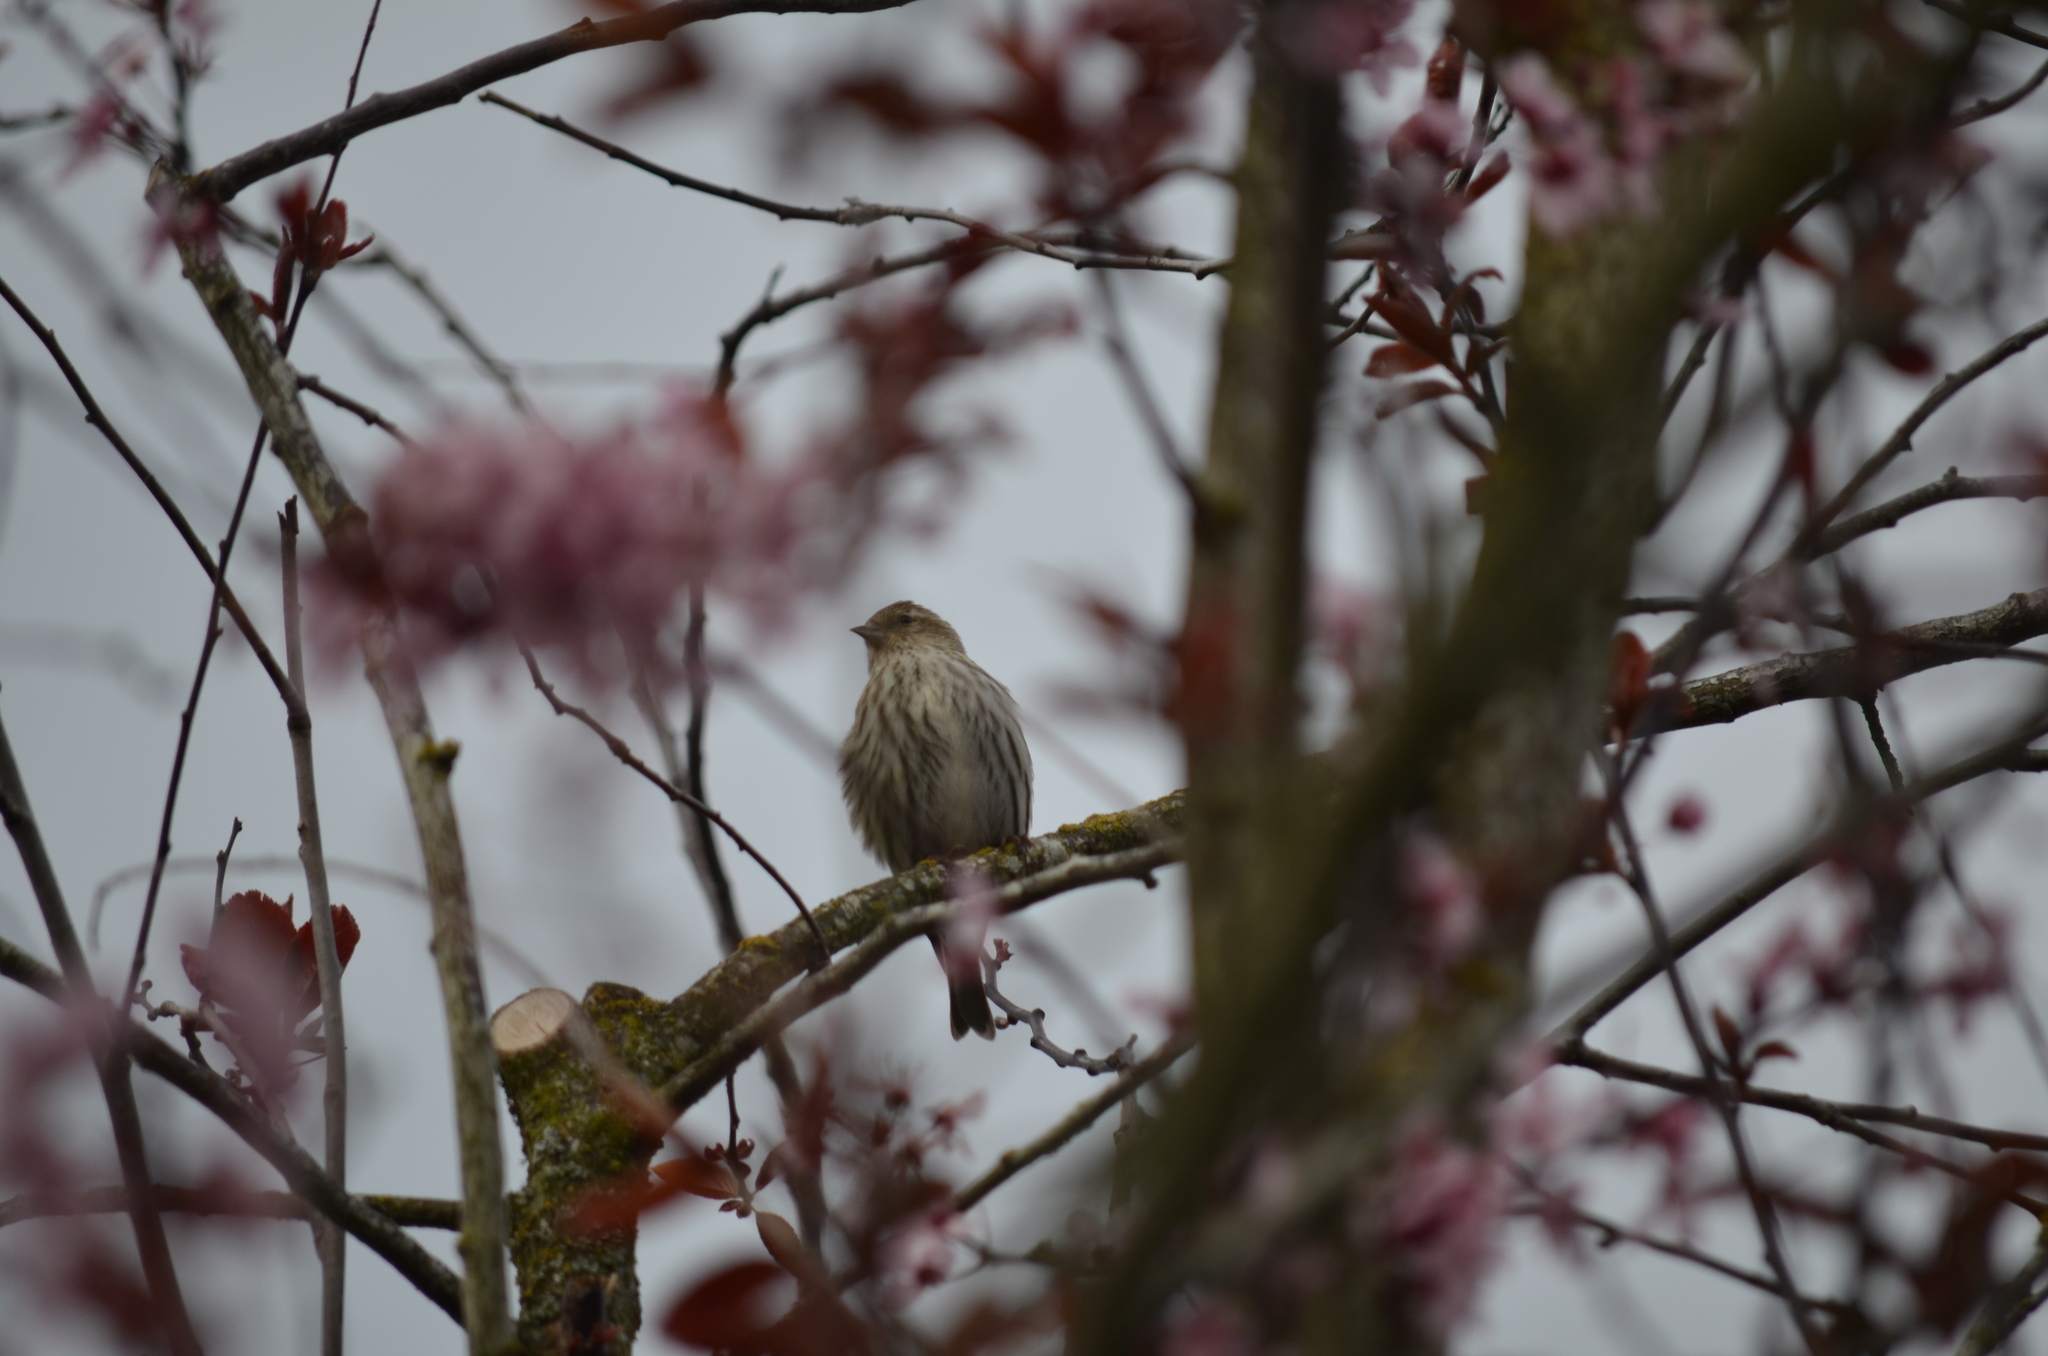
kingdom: Animalia
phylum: Chordata
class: Aves
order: Passeriformes
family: Fringillidae
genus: Spinus
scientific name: Spinus pinus
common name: Pine siskin
